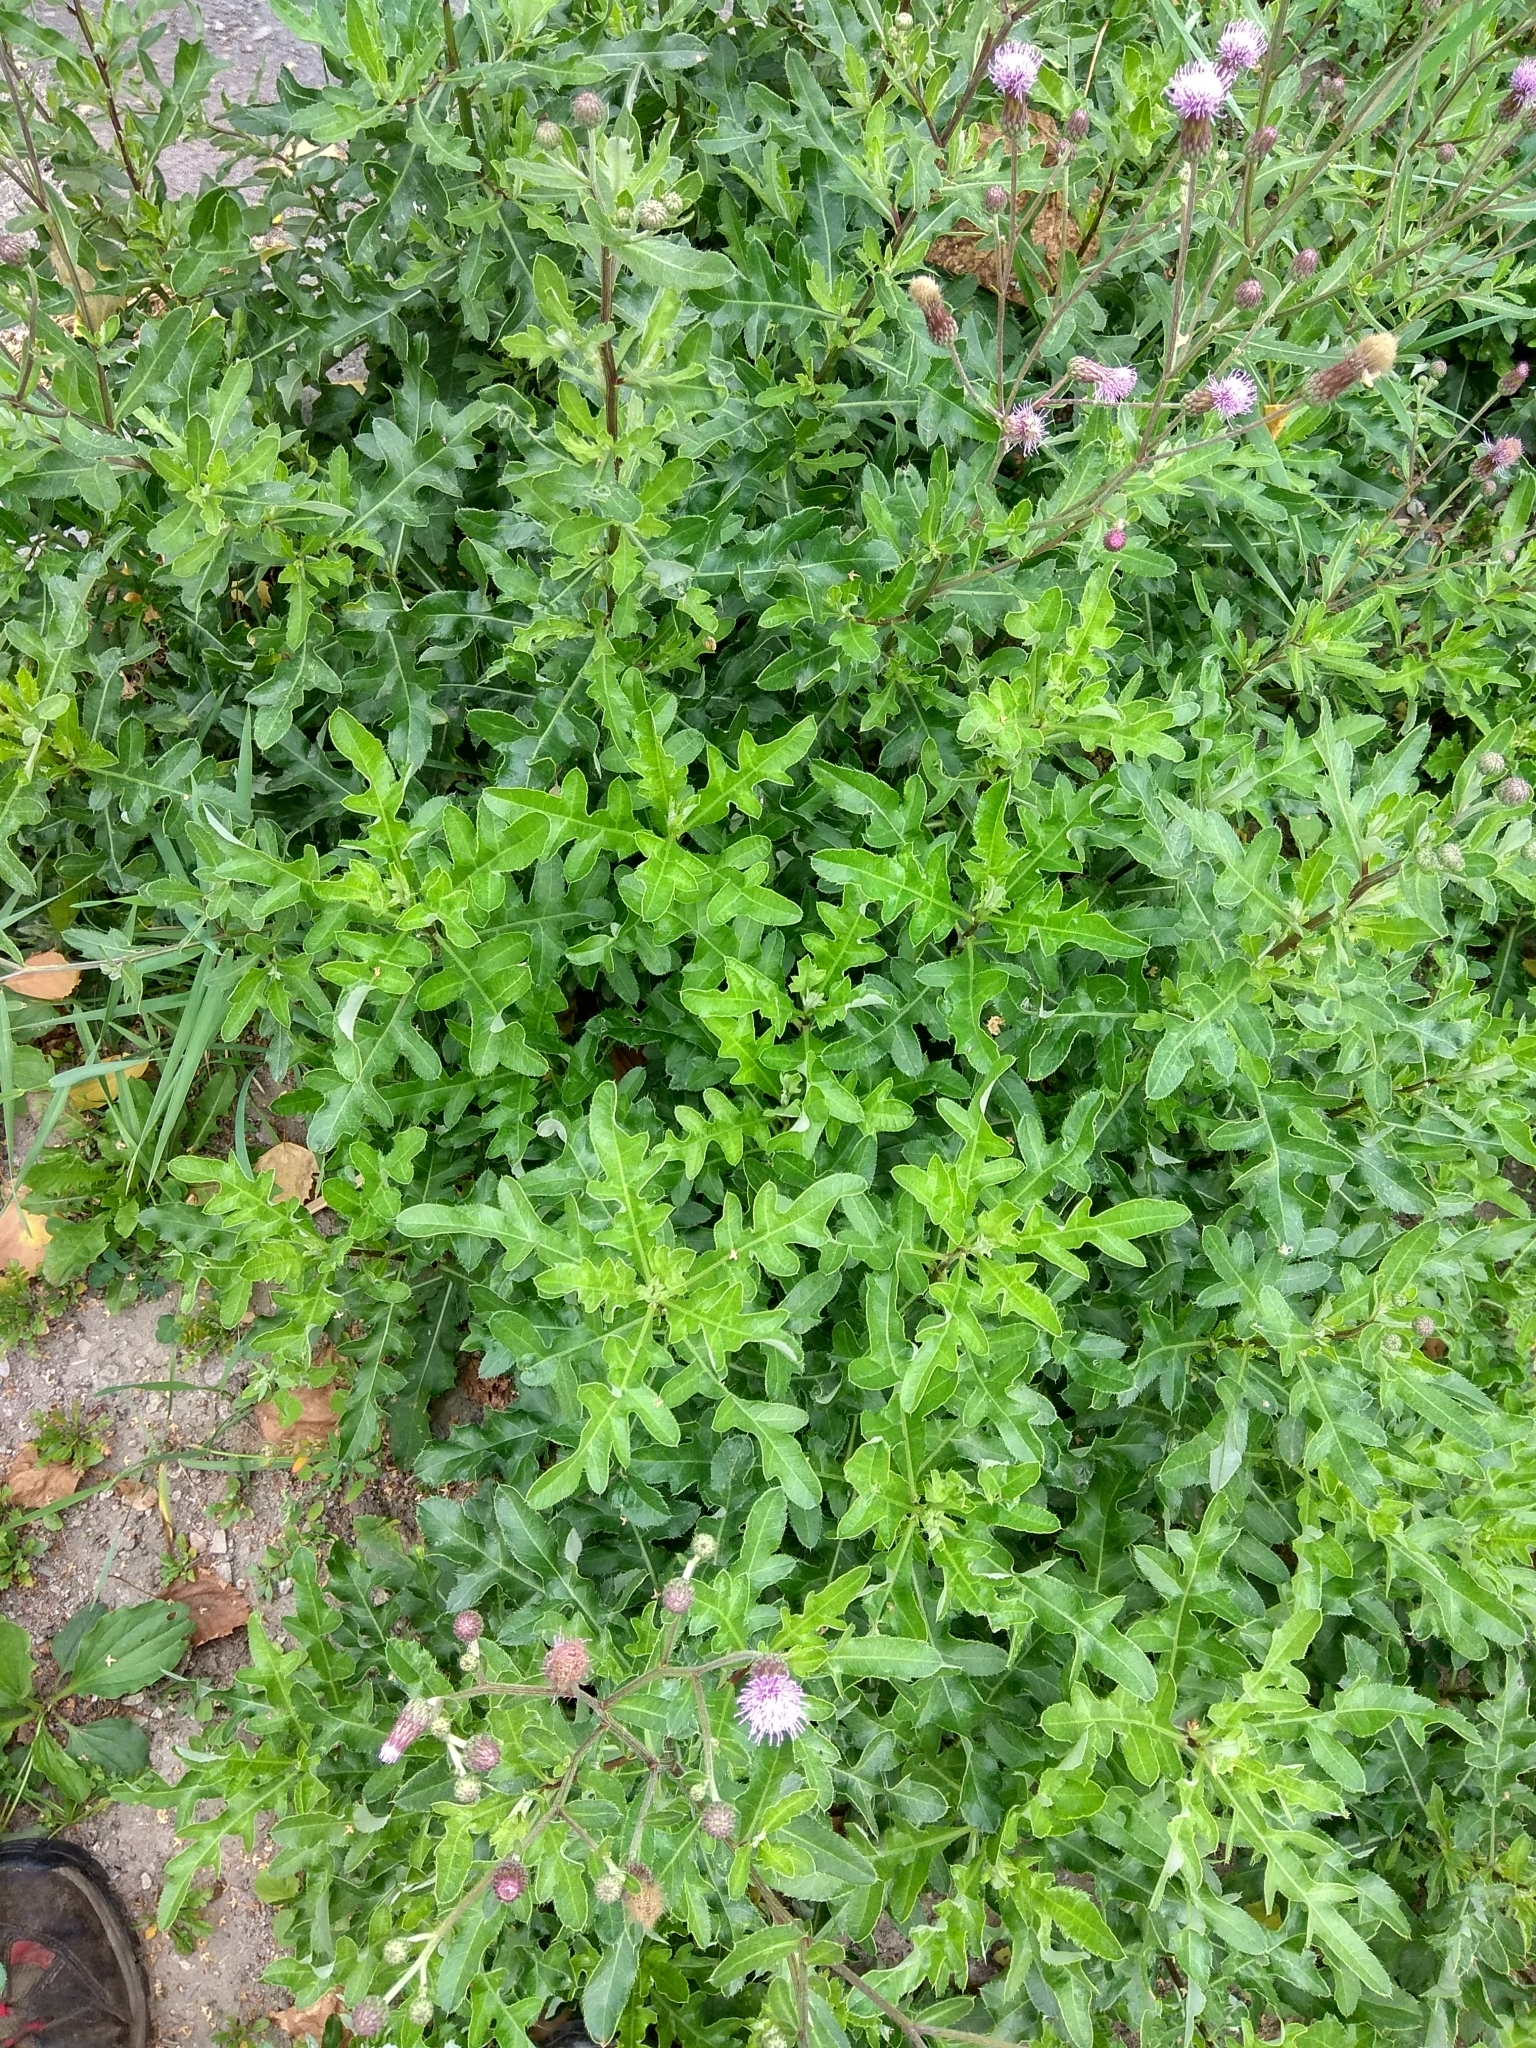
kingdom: Plantae
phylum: Tracheophyta
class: Magnoliopsida
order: Asterales
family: Asteraceae
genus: Cirsium
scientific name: Cirsium arvense
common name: Creeping thistle
